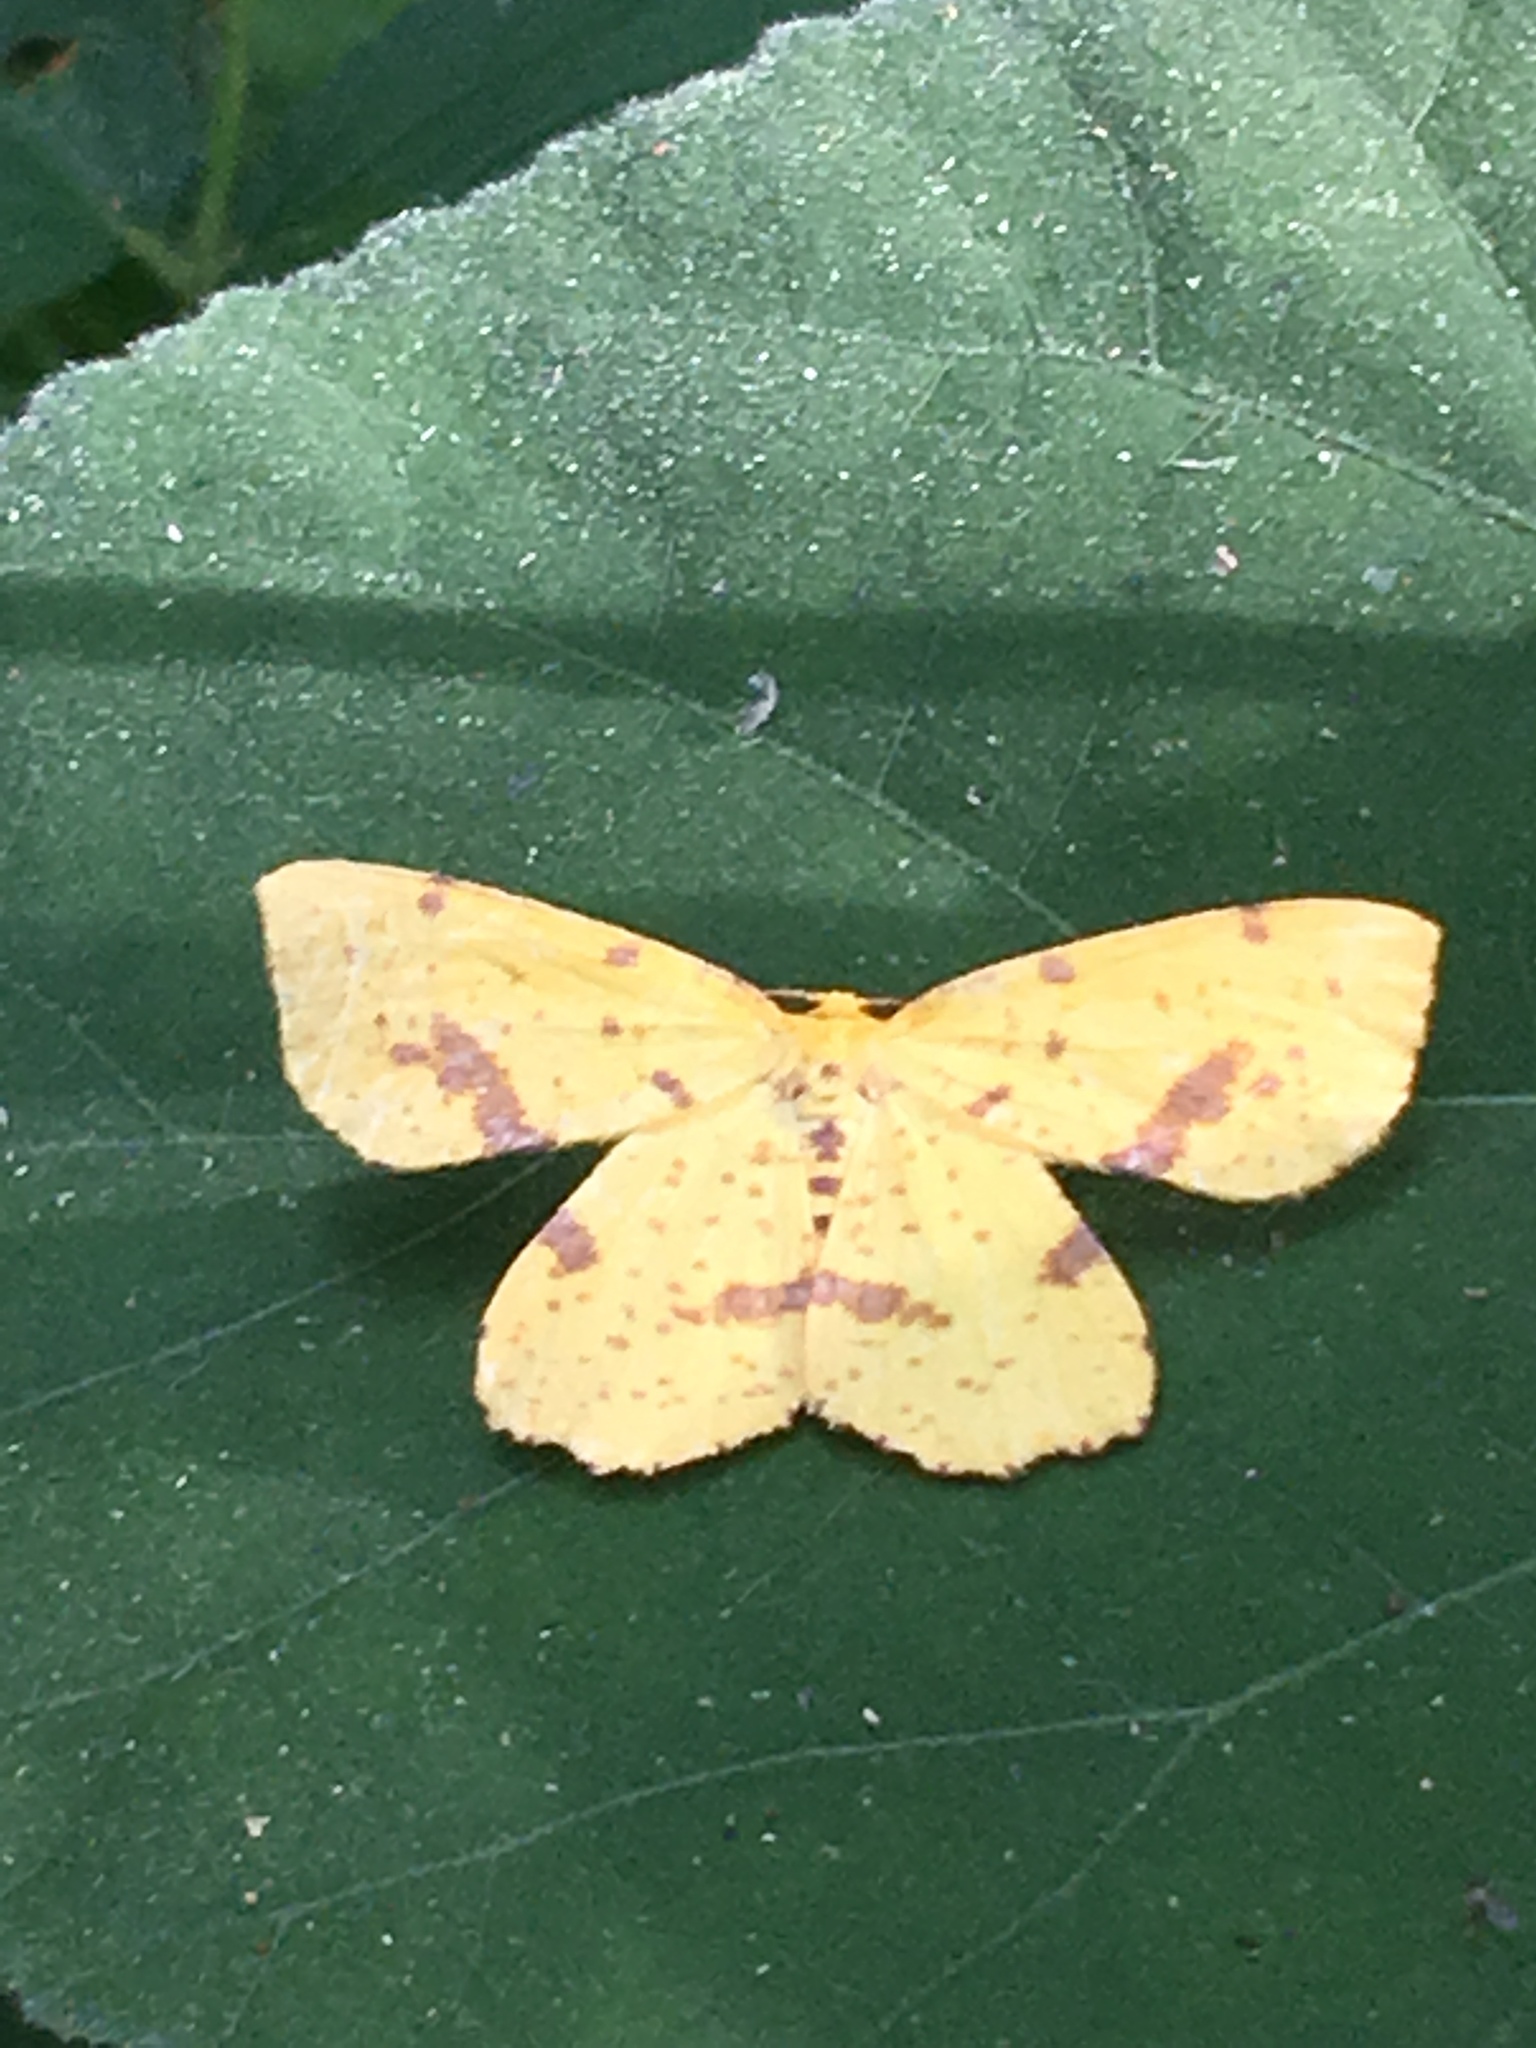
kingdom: Animalia
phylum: Arthropoda
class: Insecta
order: Lepidoptera
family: Geometridae
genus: Xanthotype
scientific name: Xanthotype
